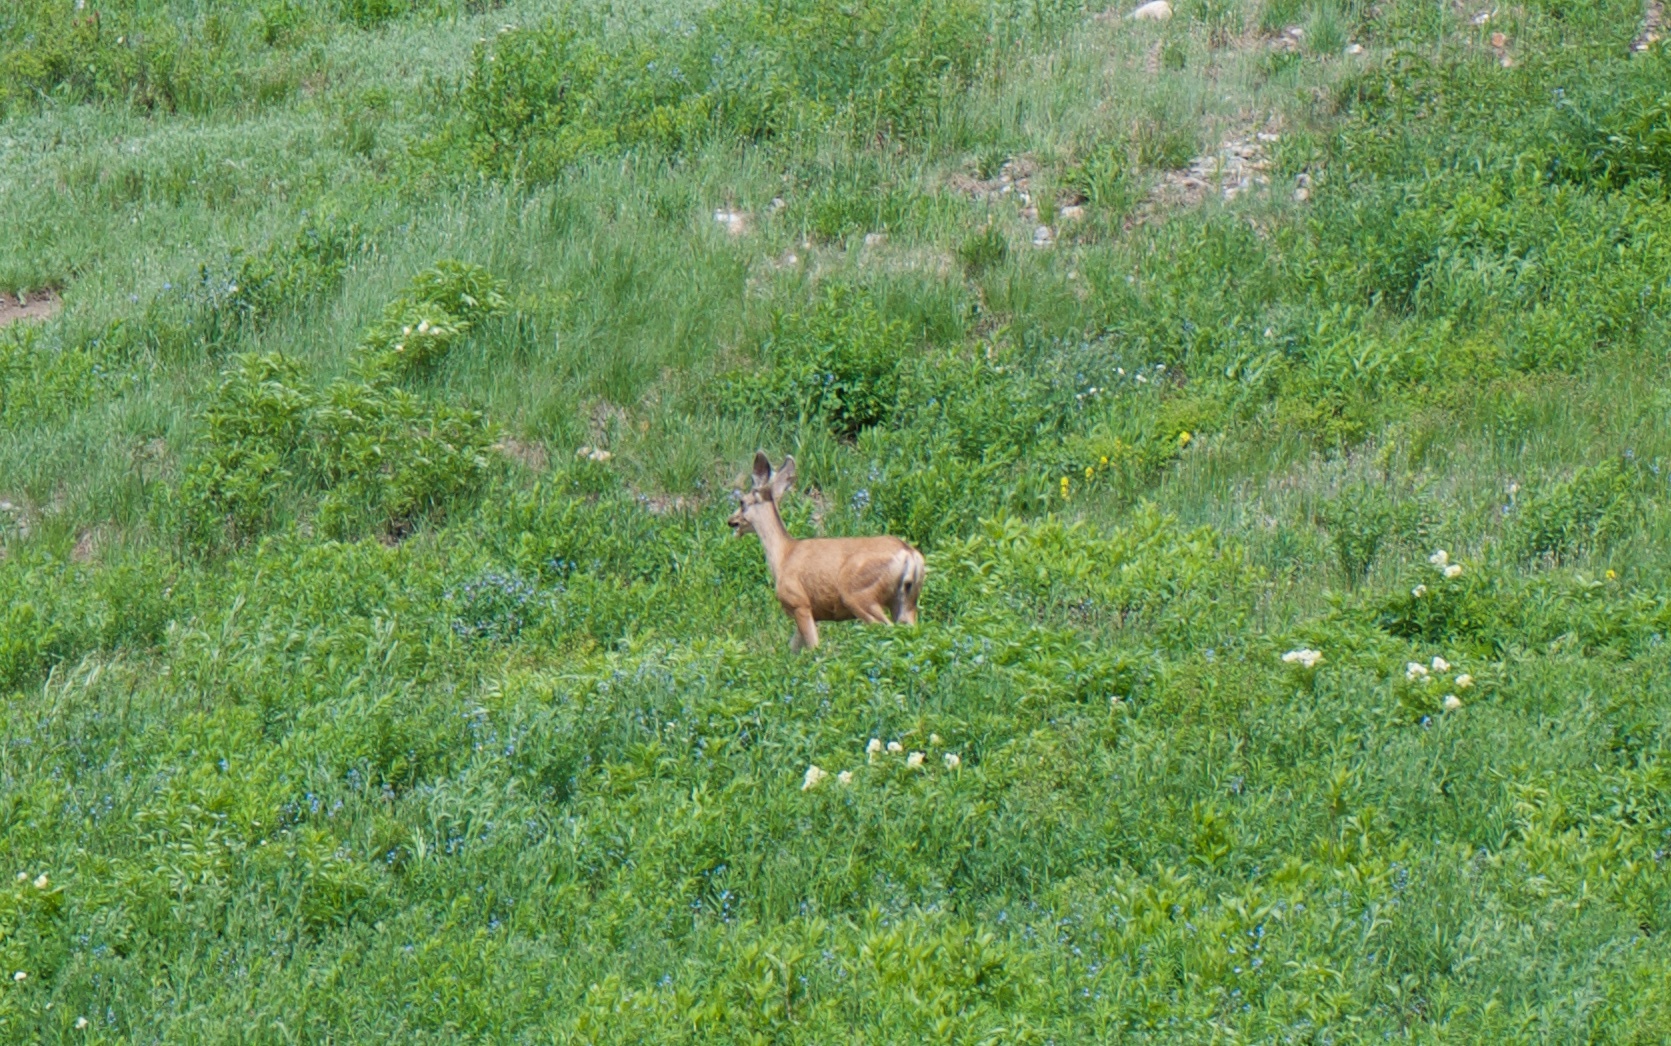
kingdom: Animalia
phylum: Chordata
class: Mammalia
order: Artiodactyla
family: Cervidae
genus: Odocoileus
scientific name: Odocoileus hemionus
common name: Mule deer
